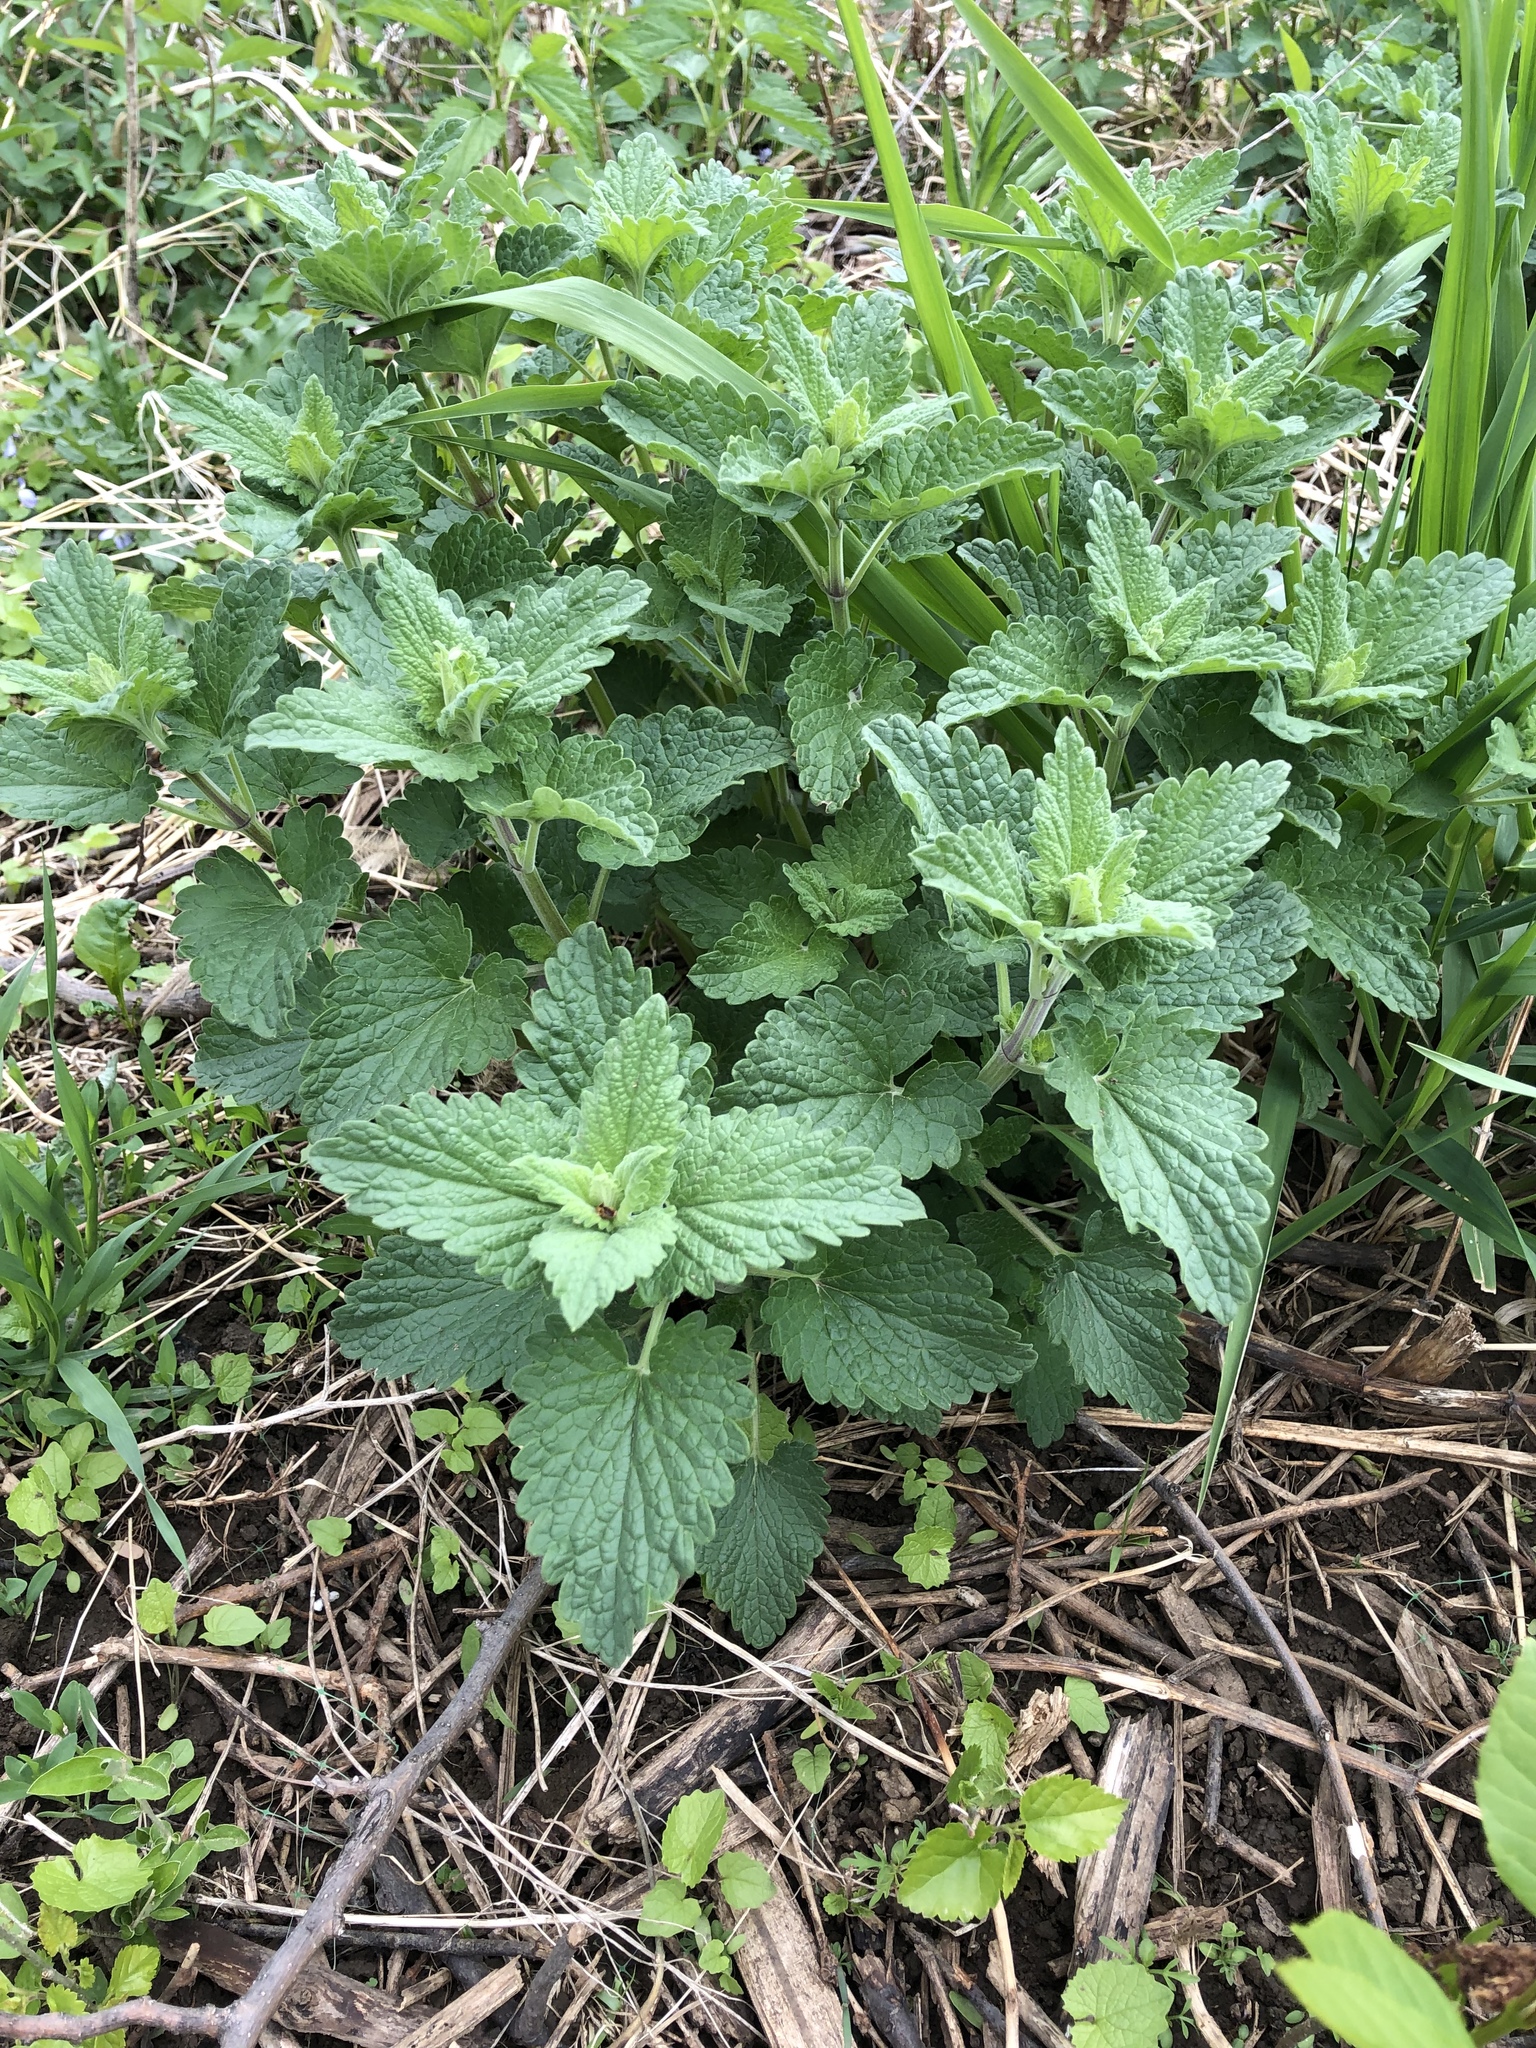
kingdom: Plantae
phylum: Tracheophyta
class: Magnoliopsida
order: Lamiales
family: Lamiaceae
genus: Nepeta
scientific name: Nepeta cataria
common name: Catnip
